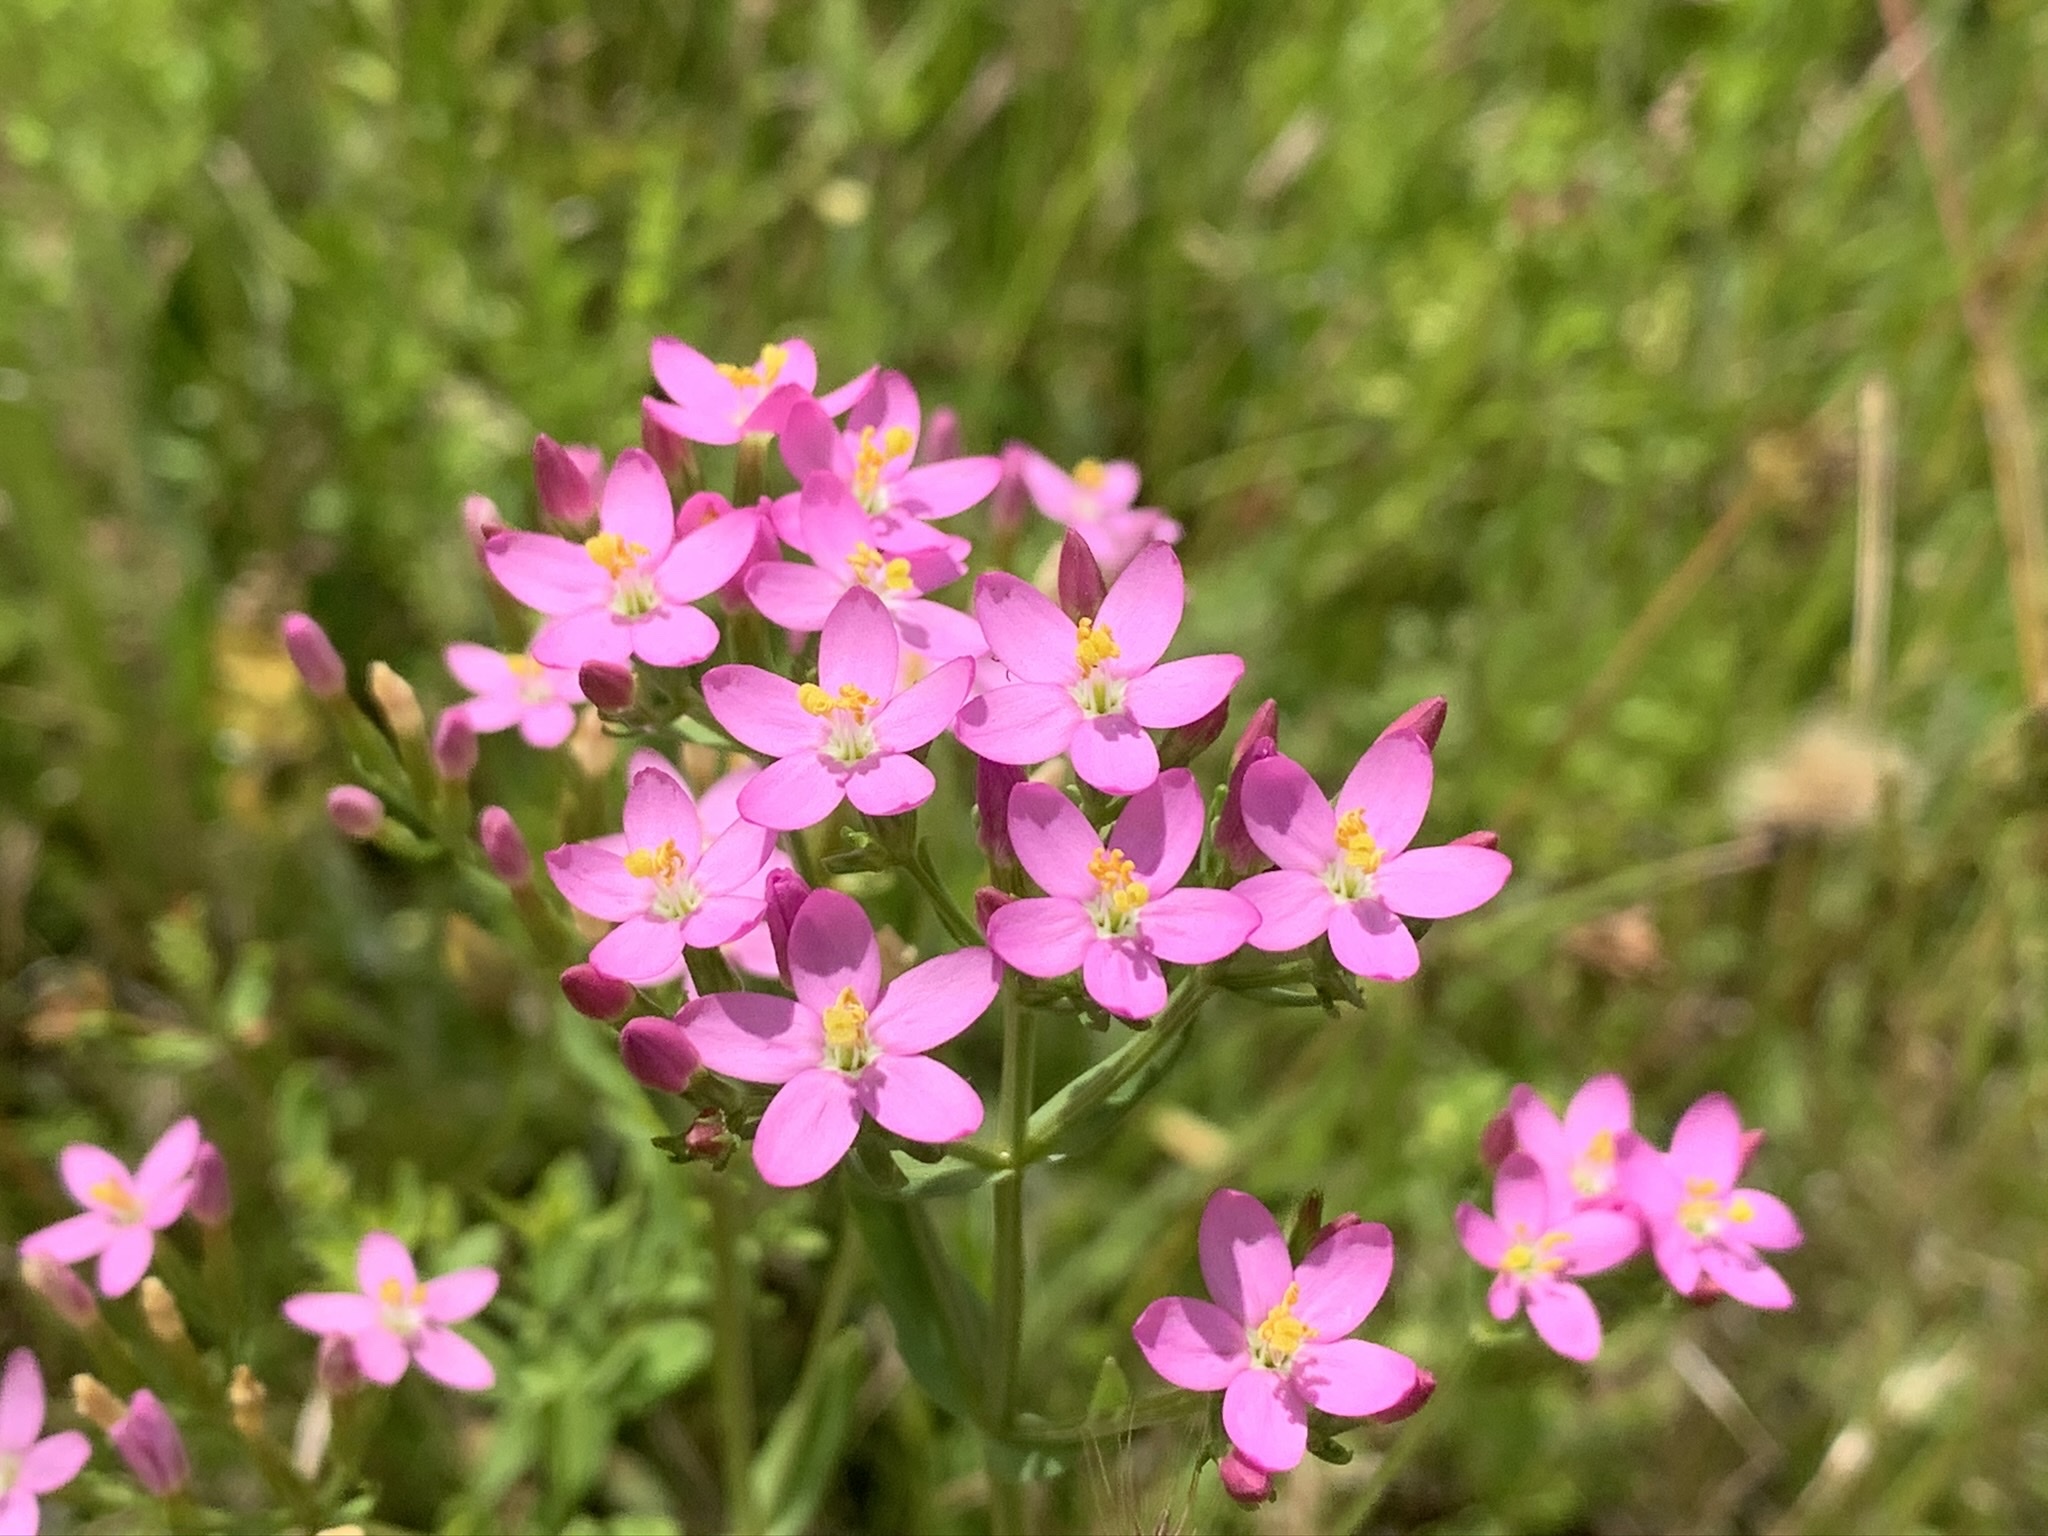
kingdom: Plantae
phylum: Tracheophyta
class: Magnoliopsida
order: Gentianales
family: Gentianaceae
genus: Centaurium
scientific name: Centaurium erythraea
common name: Common centaury
